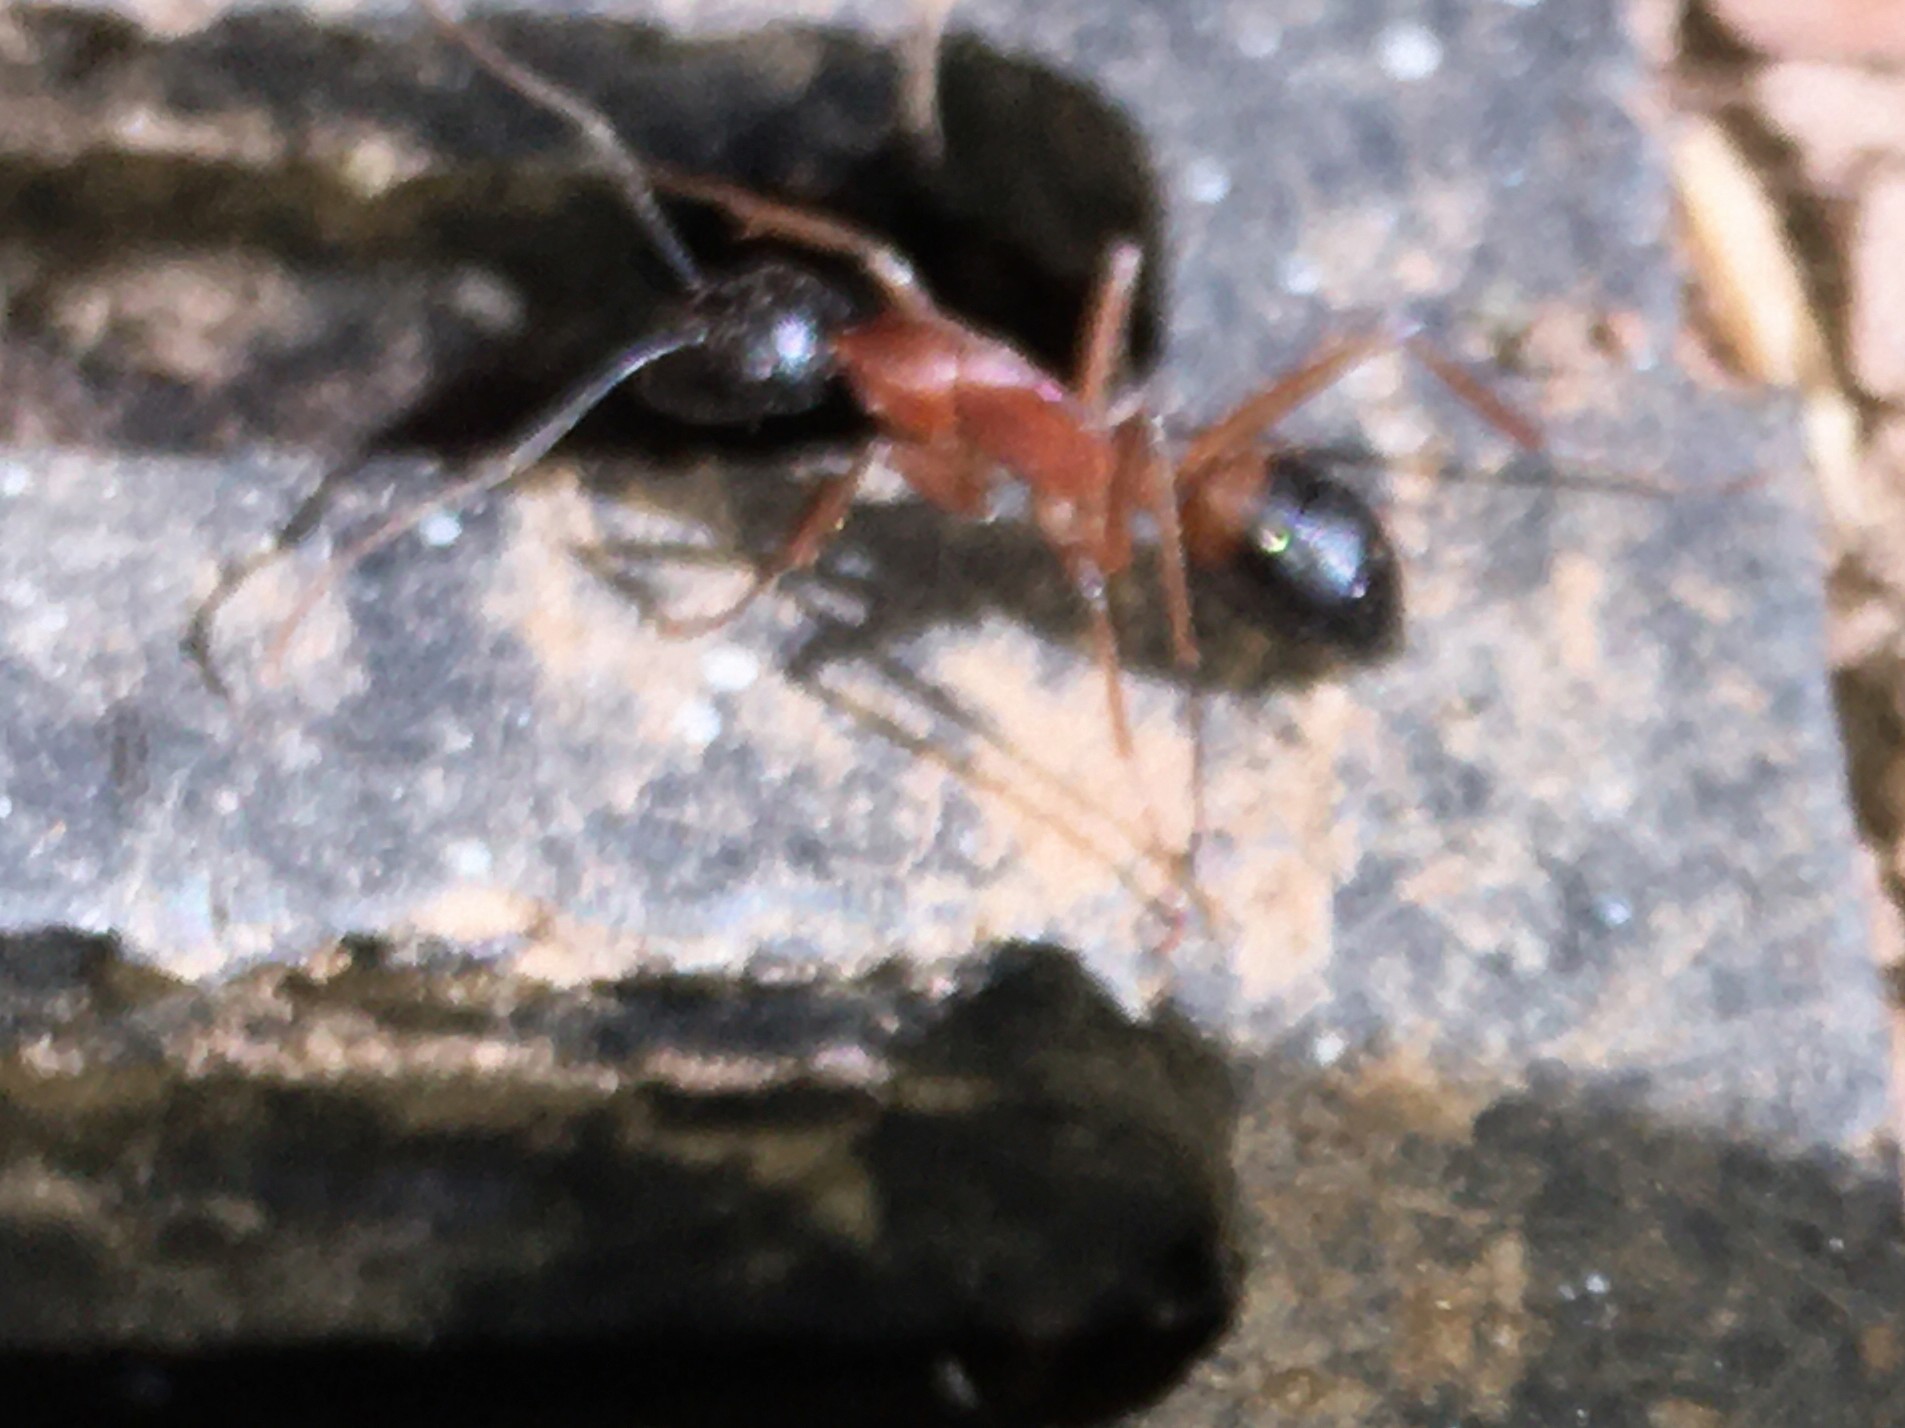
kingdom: Animalia
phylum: Arthropoda
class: Insecta
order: Hymenoptera
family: Formicidae
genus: Camponotus
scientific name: Camponotus consobrinus
